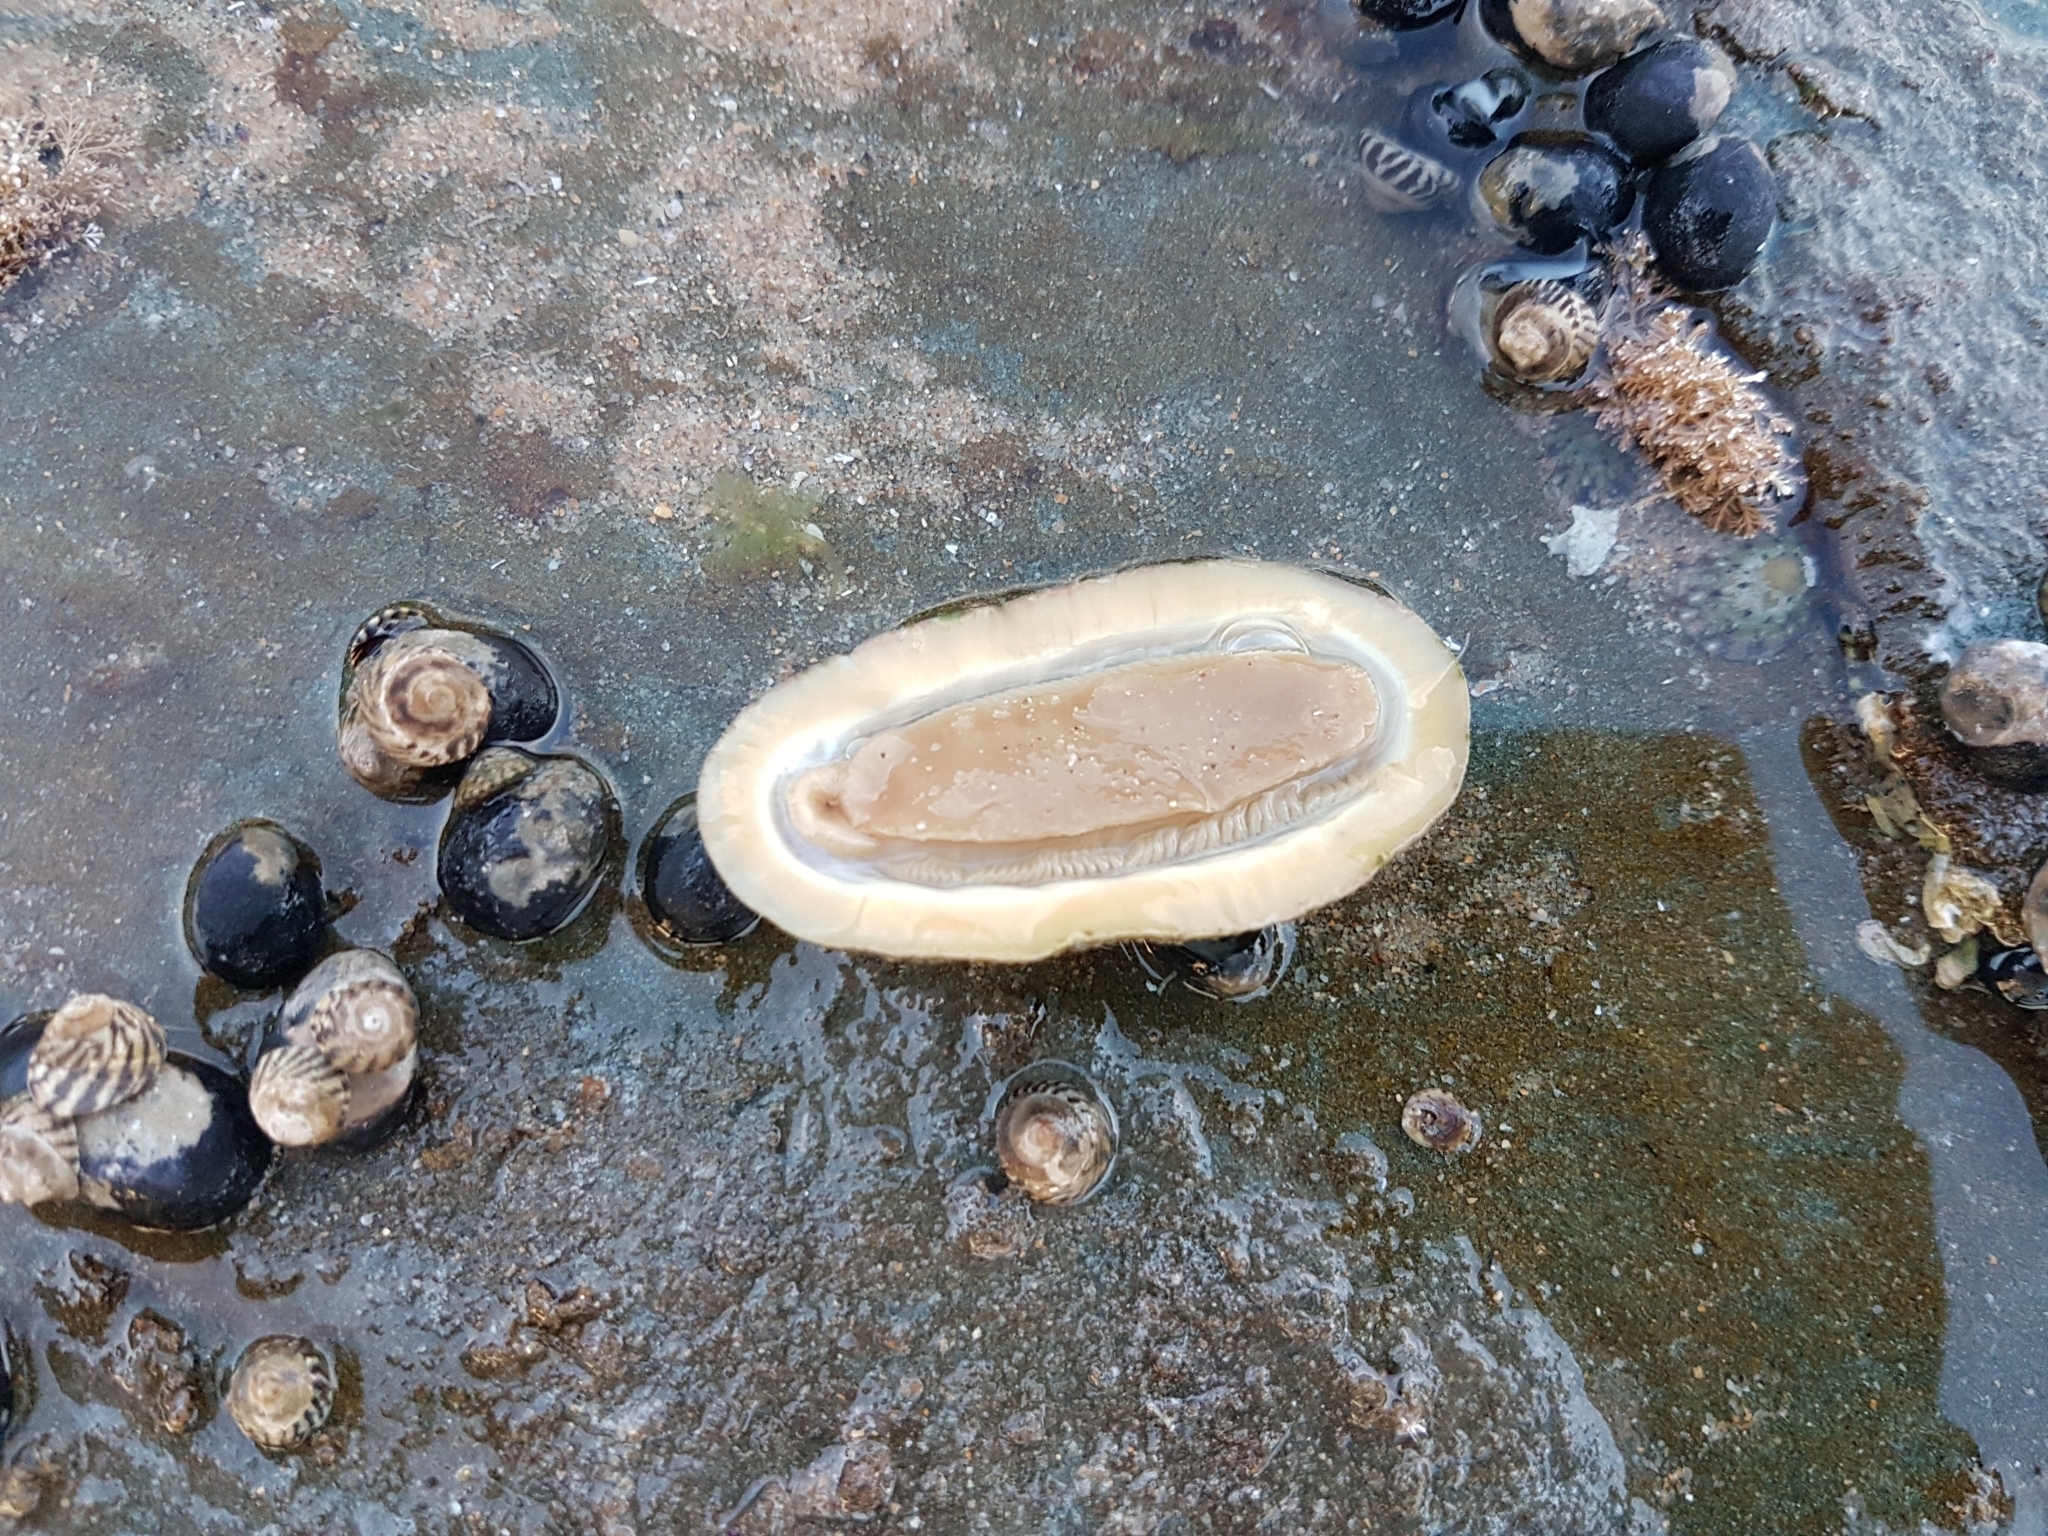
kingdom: Animalia
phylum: Mollusca
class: Polyplacophora
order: Chitonida
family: Ischnochitonidae
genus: Ischnochiton
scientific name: Ischnochiton australis
